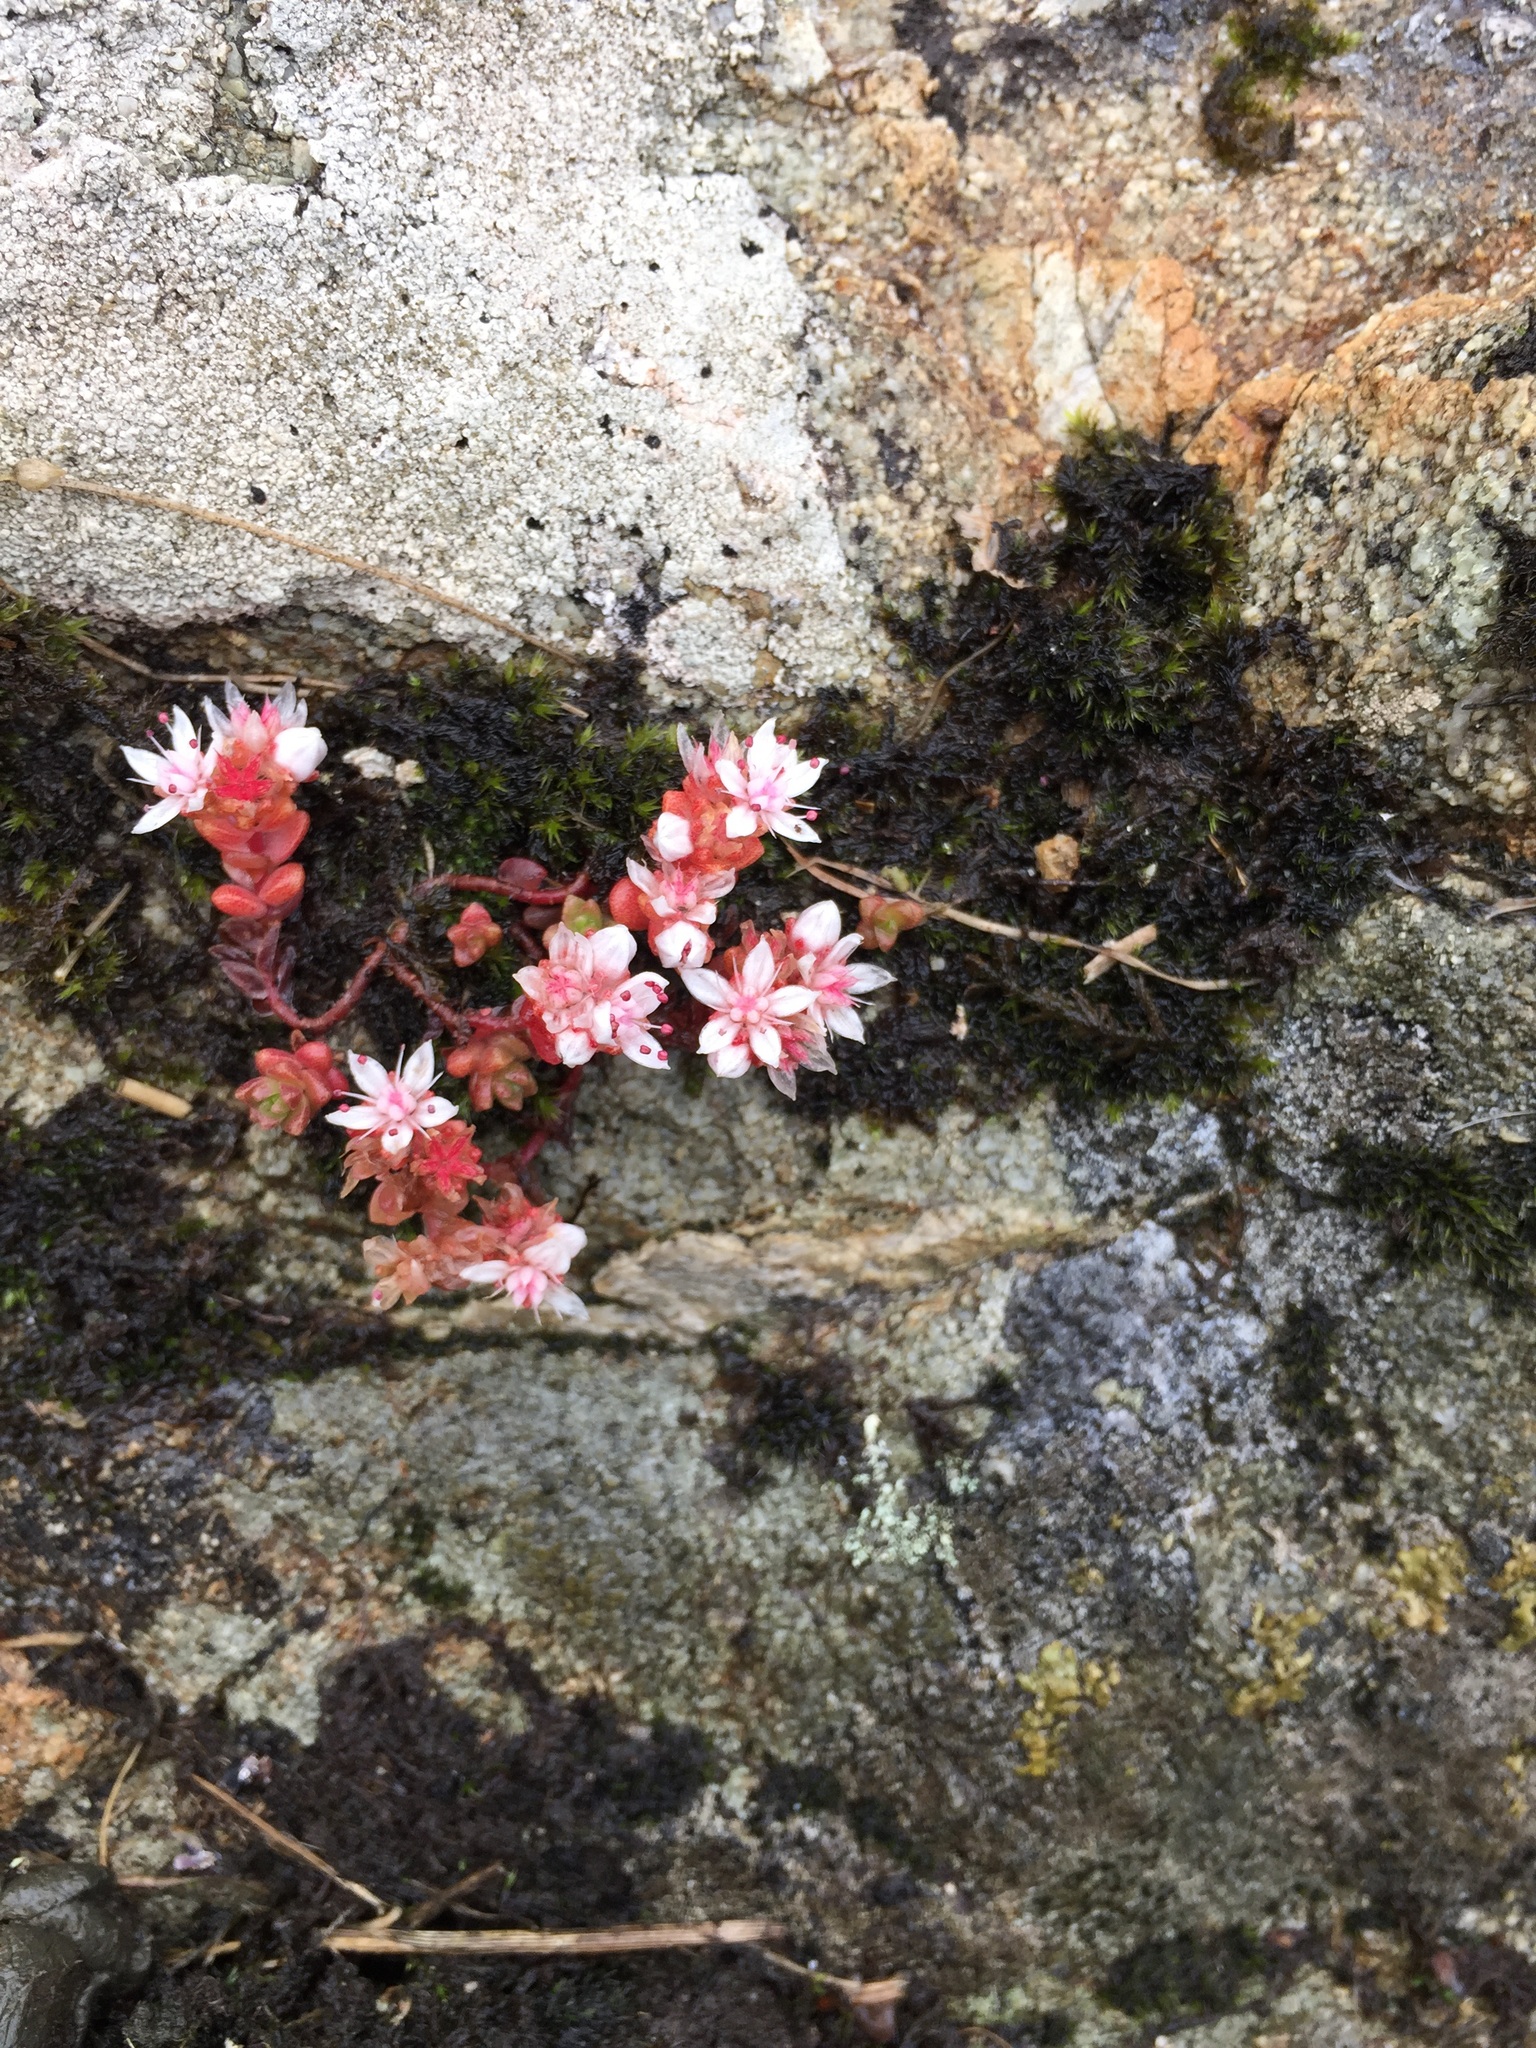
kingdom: Plantae
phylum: Tracheophyta
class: Magnoliopsida
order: Saxifragales
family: Crassulaceae
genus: Sedum
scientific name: Sedum anglicum
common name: English stonecrop
